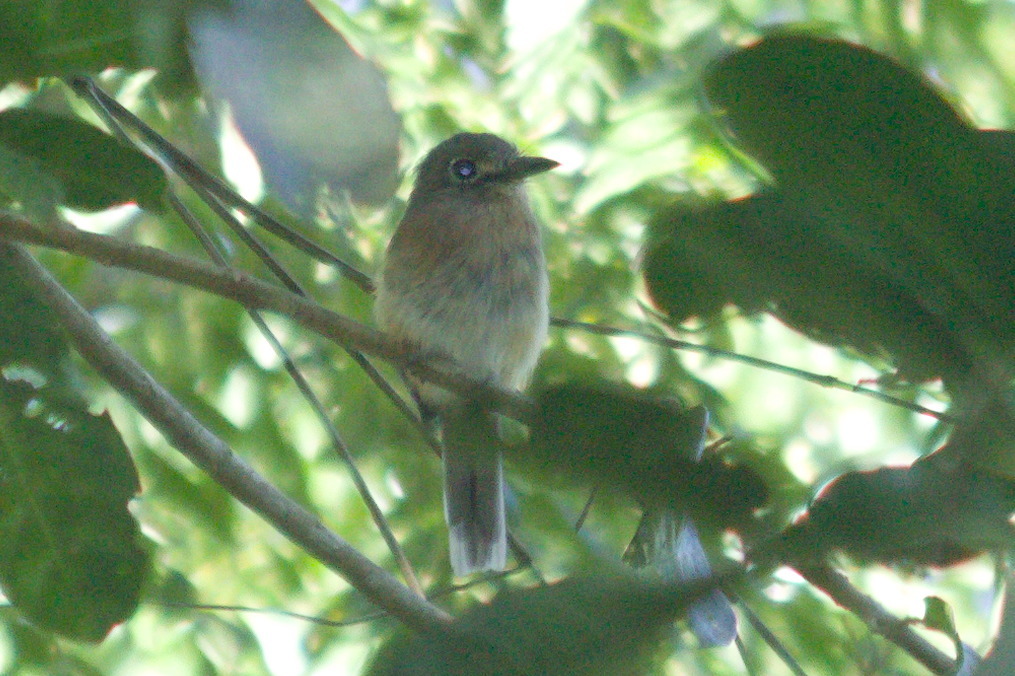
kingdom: Animalia
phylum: Chordata
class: Aves
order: Piciformes
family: Bucconidae
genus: Nonnula
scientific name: Nonnula rubecula
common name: Rusty-breasted nunlet
